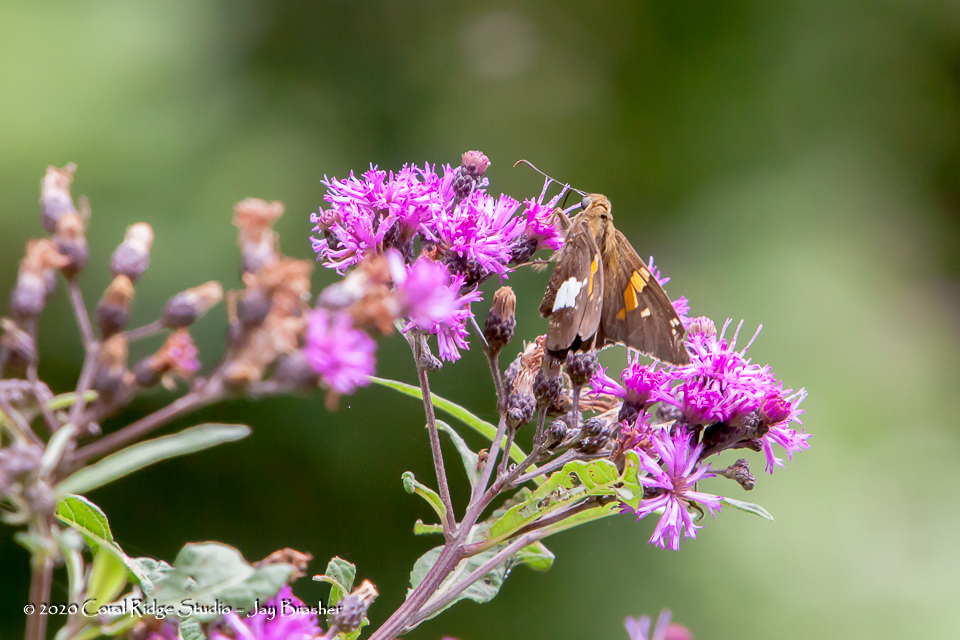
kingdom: Plantae
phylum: Tracheophyta
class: Magnoliopsida
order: Asterales
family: Asteraceae
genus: Vernonia
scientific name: Vernonia gigantea
